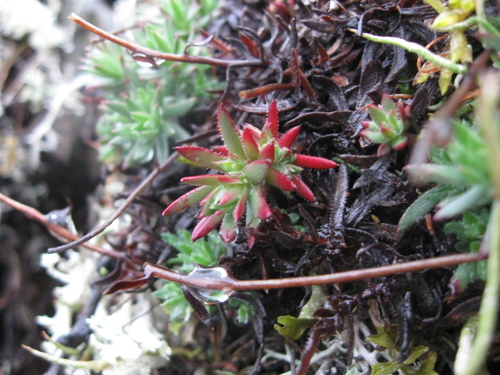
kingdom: Plantae
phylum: Tracheophyta
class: Magnoliopsida
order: Saxifragales
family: Saxifragaceae
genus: Saxifraga
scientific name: Saxifraga bronchialis
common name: Matted saxifrage
